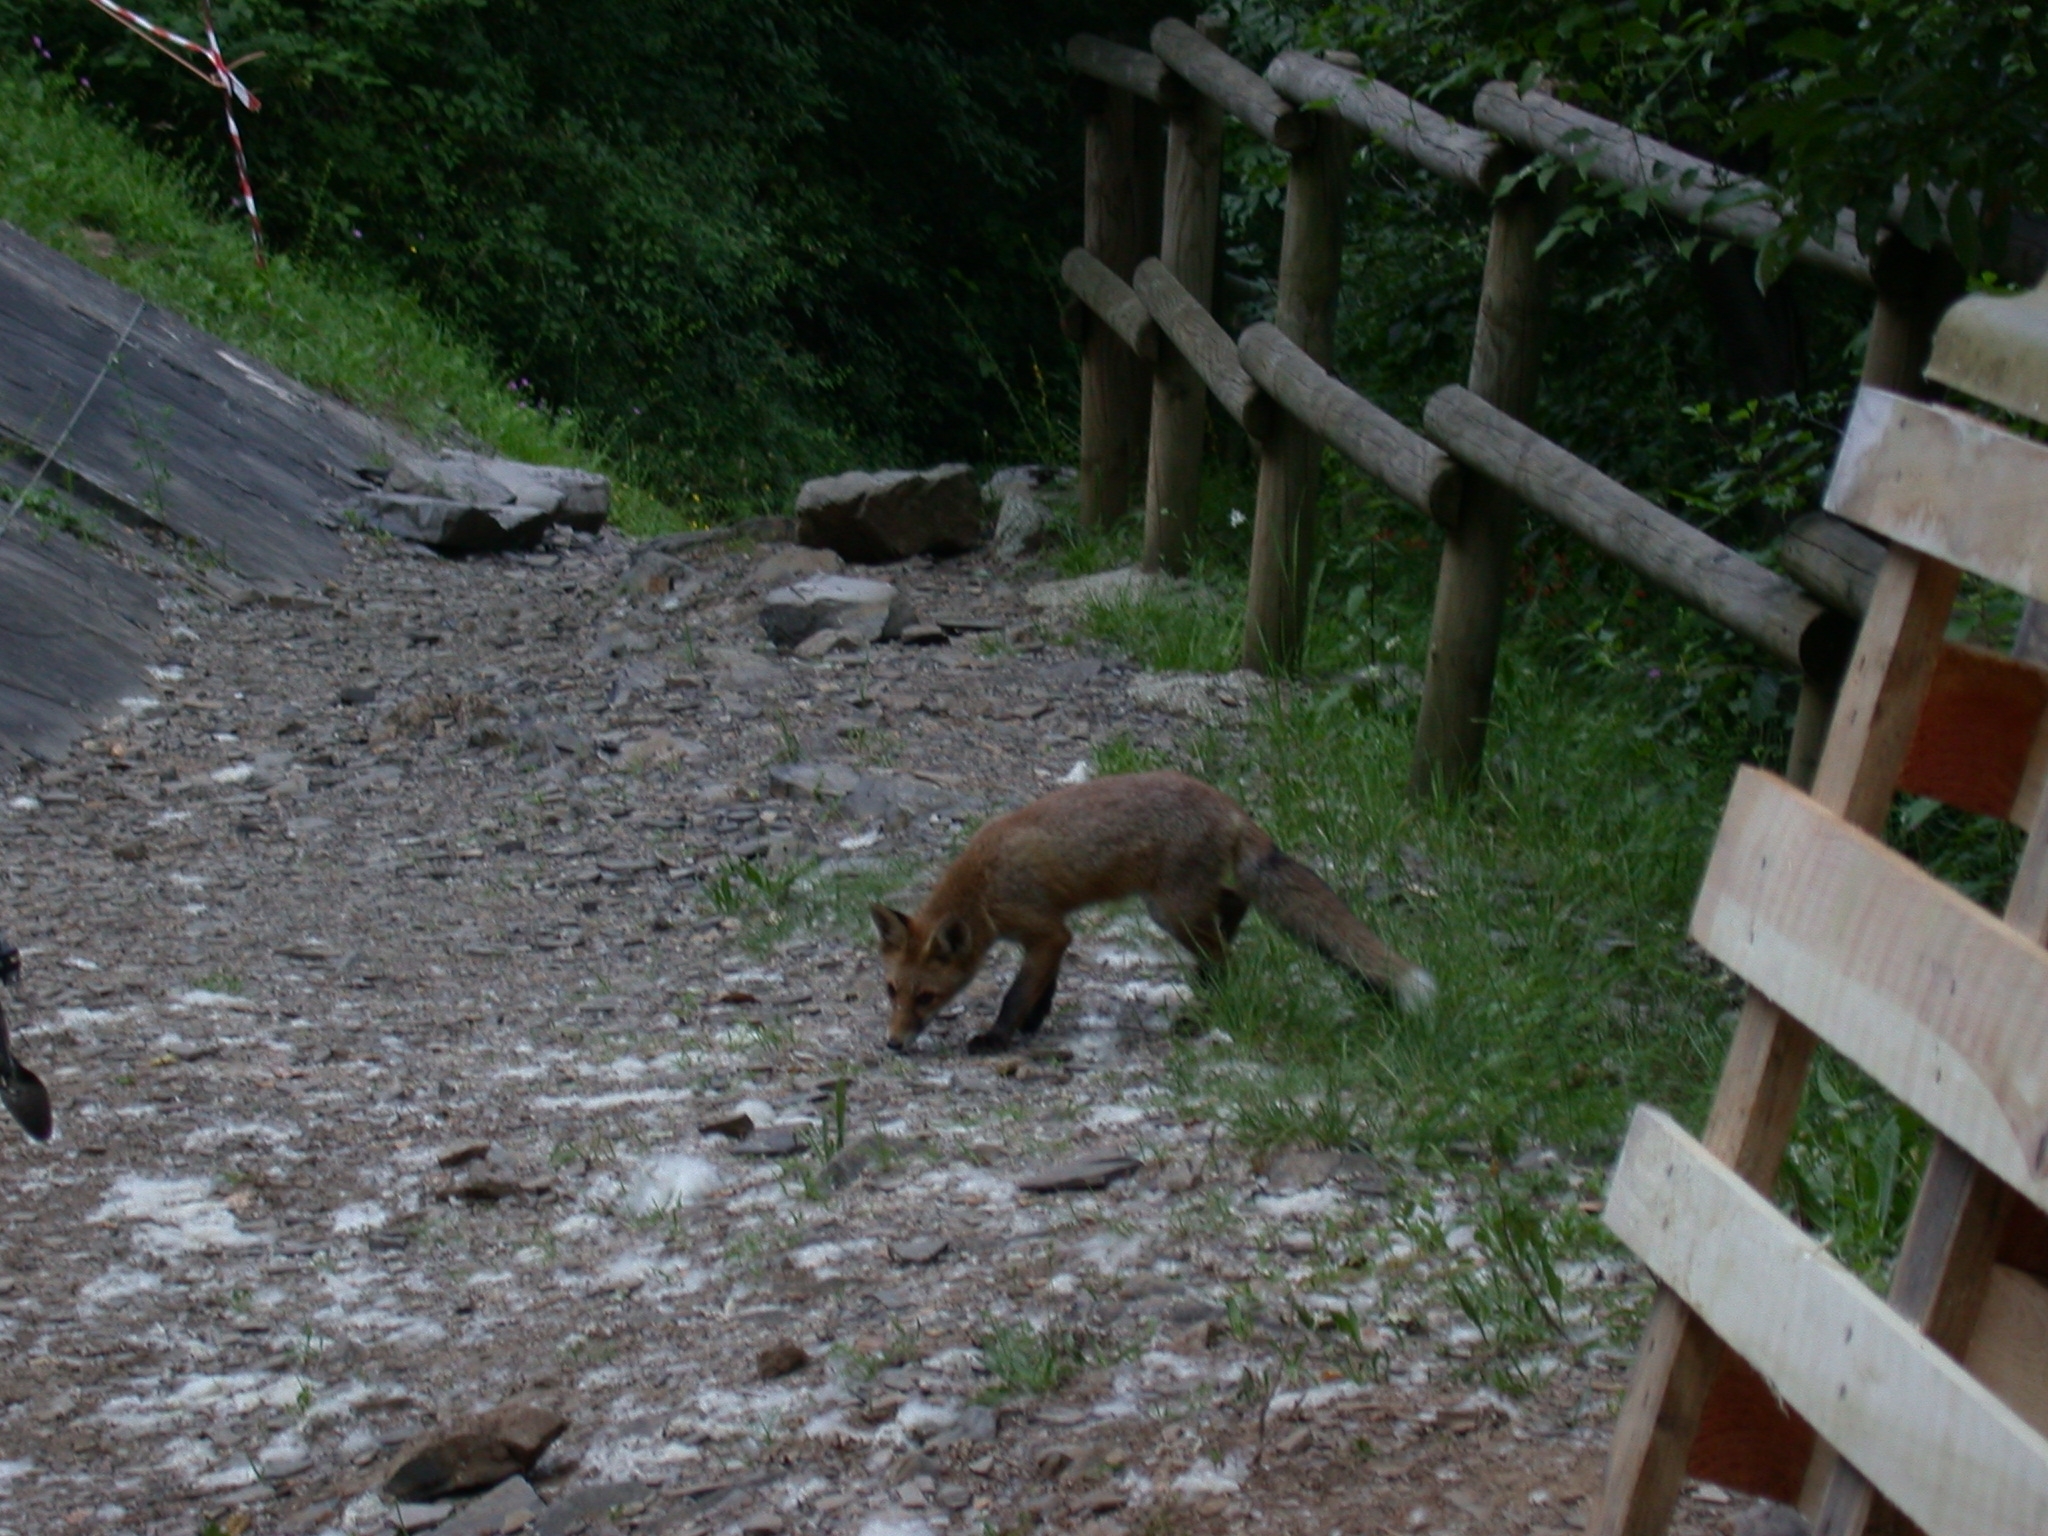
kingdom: Animalia
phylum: Chordata
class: Mammalia
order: Carnivora
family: Canidae
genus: Vulpes
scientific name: Vulpes vulpes
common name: Red fox
